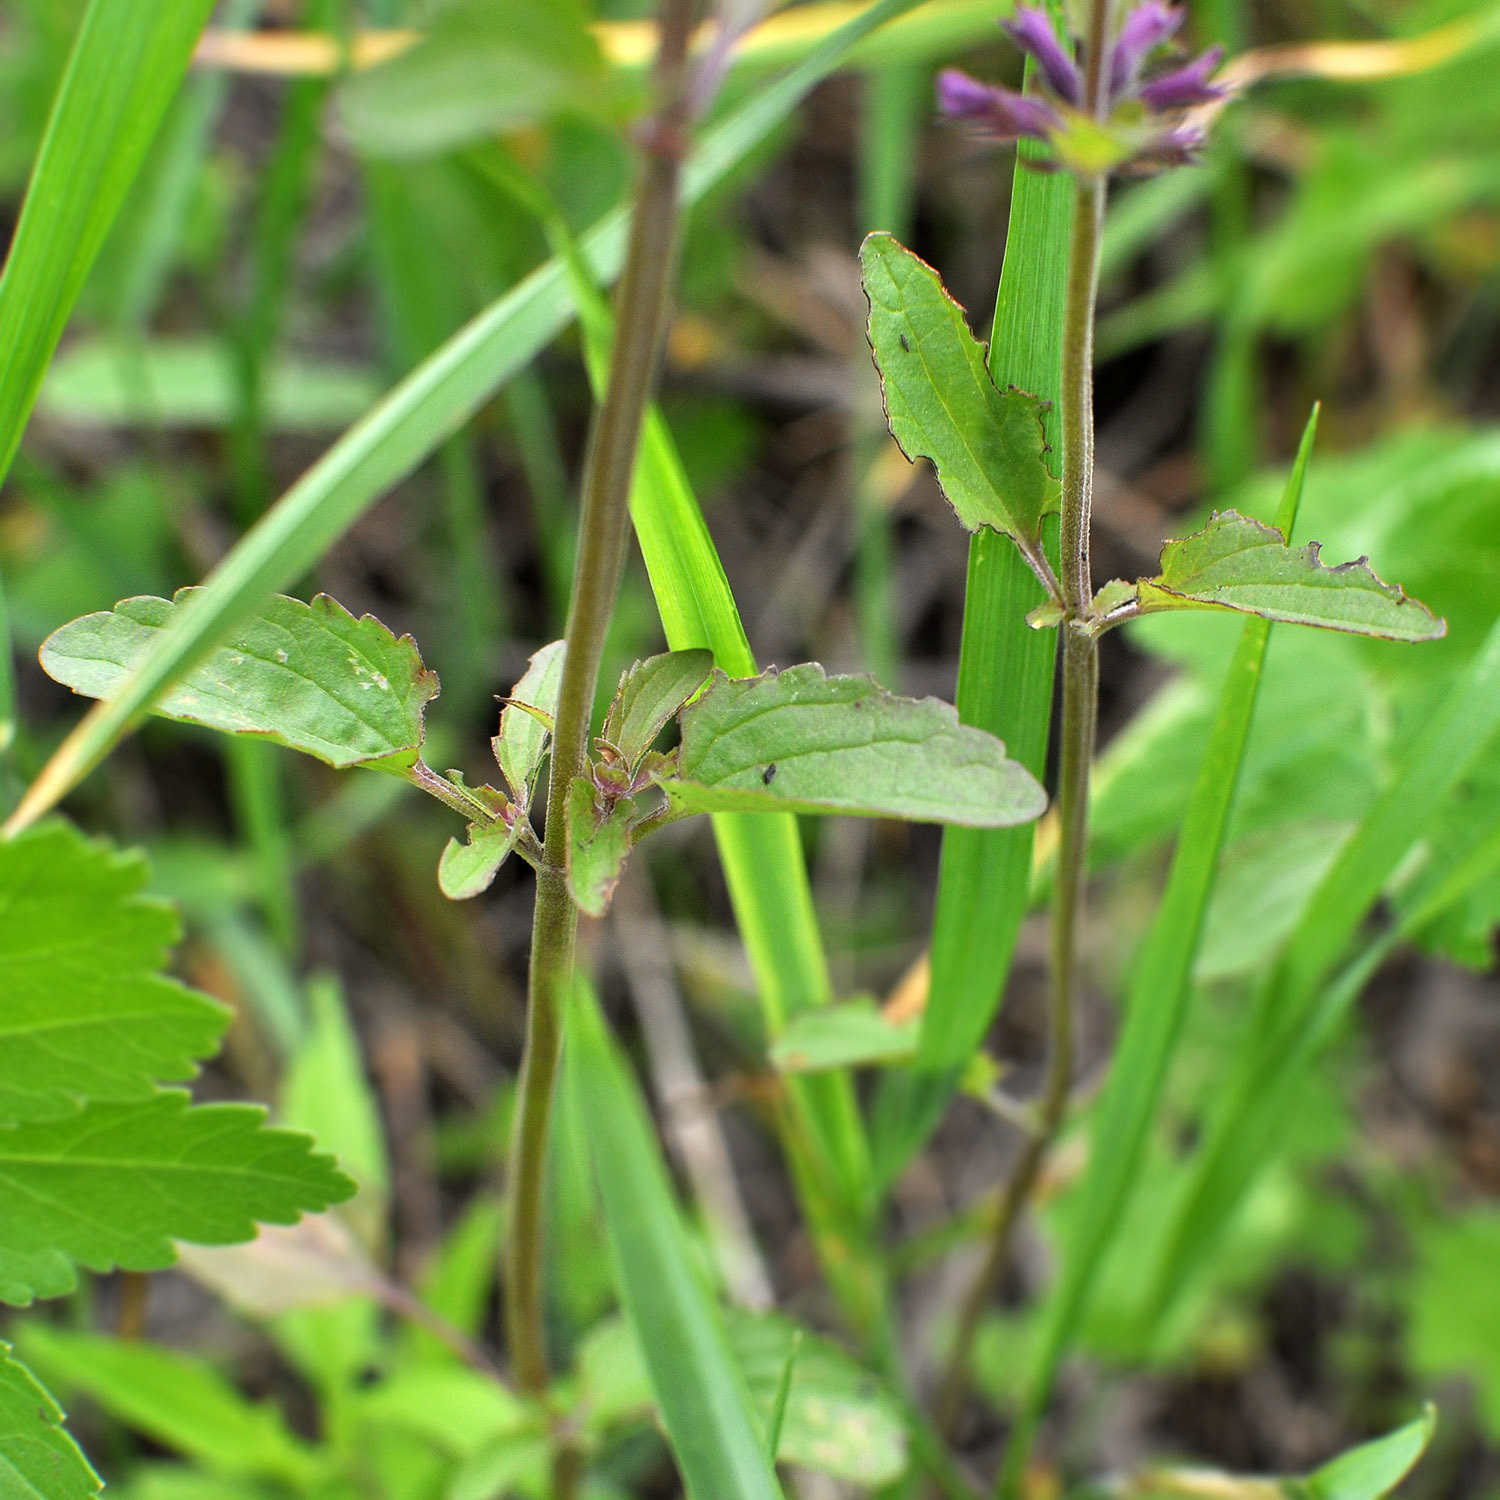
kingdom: Plantae
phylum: Tracheophyta
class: Magnoliopsida
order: Lamiales
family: Lamiaceae
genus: Dracocephalum
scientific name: Dracocephalum nutans
